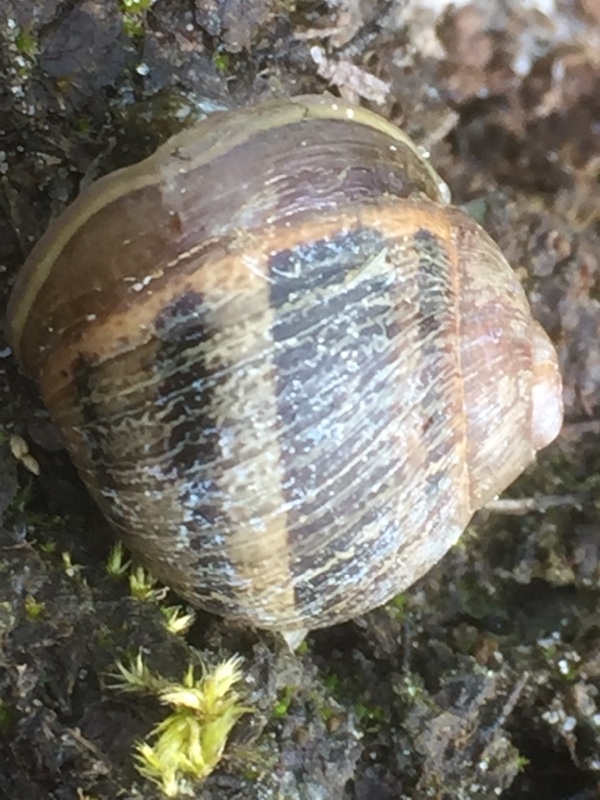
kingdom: Animalia
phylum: Mollusca
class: Gastropoda
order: Stylommatophora
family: Helicidae
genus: Cornu
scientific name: Cornu aspersum
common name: Brown garden snail
